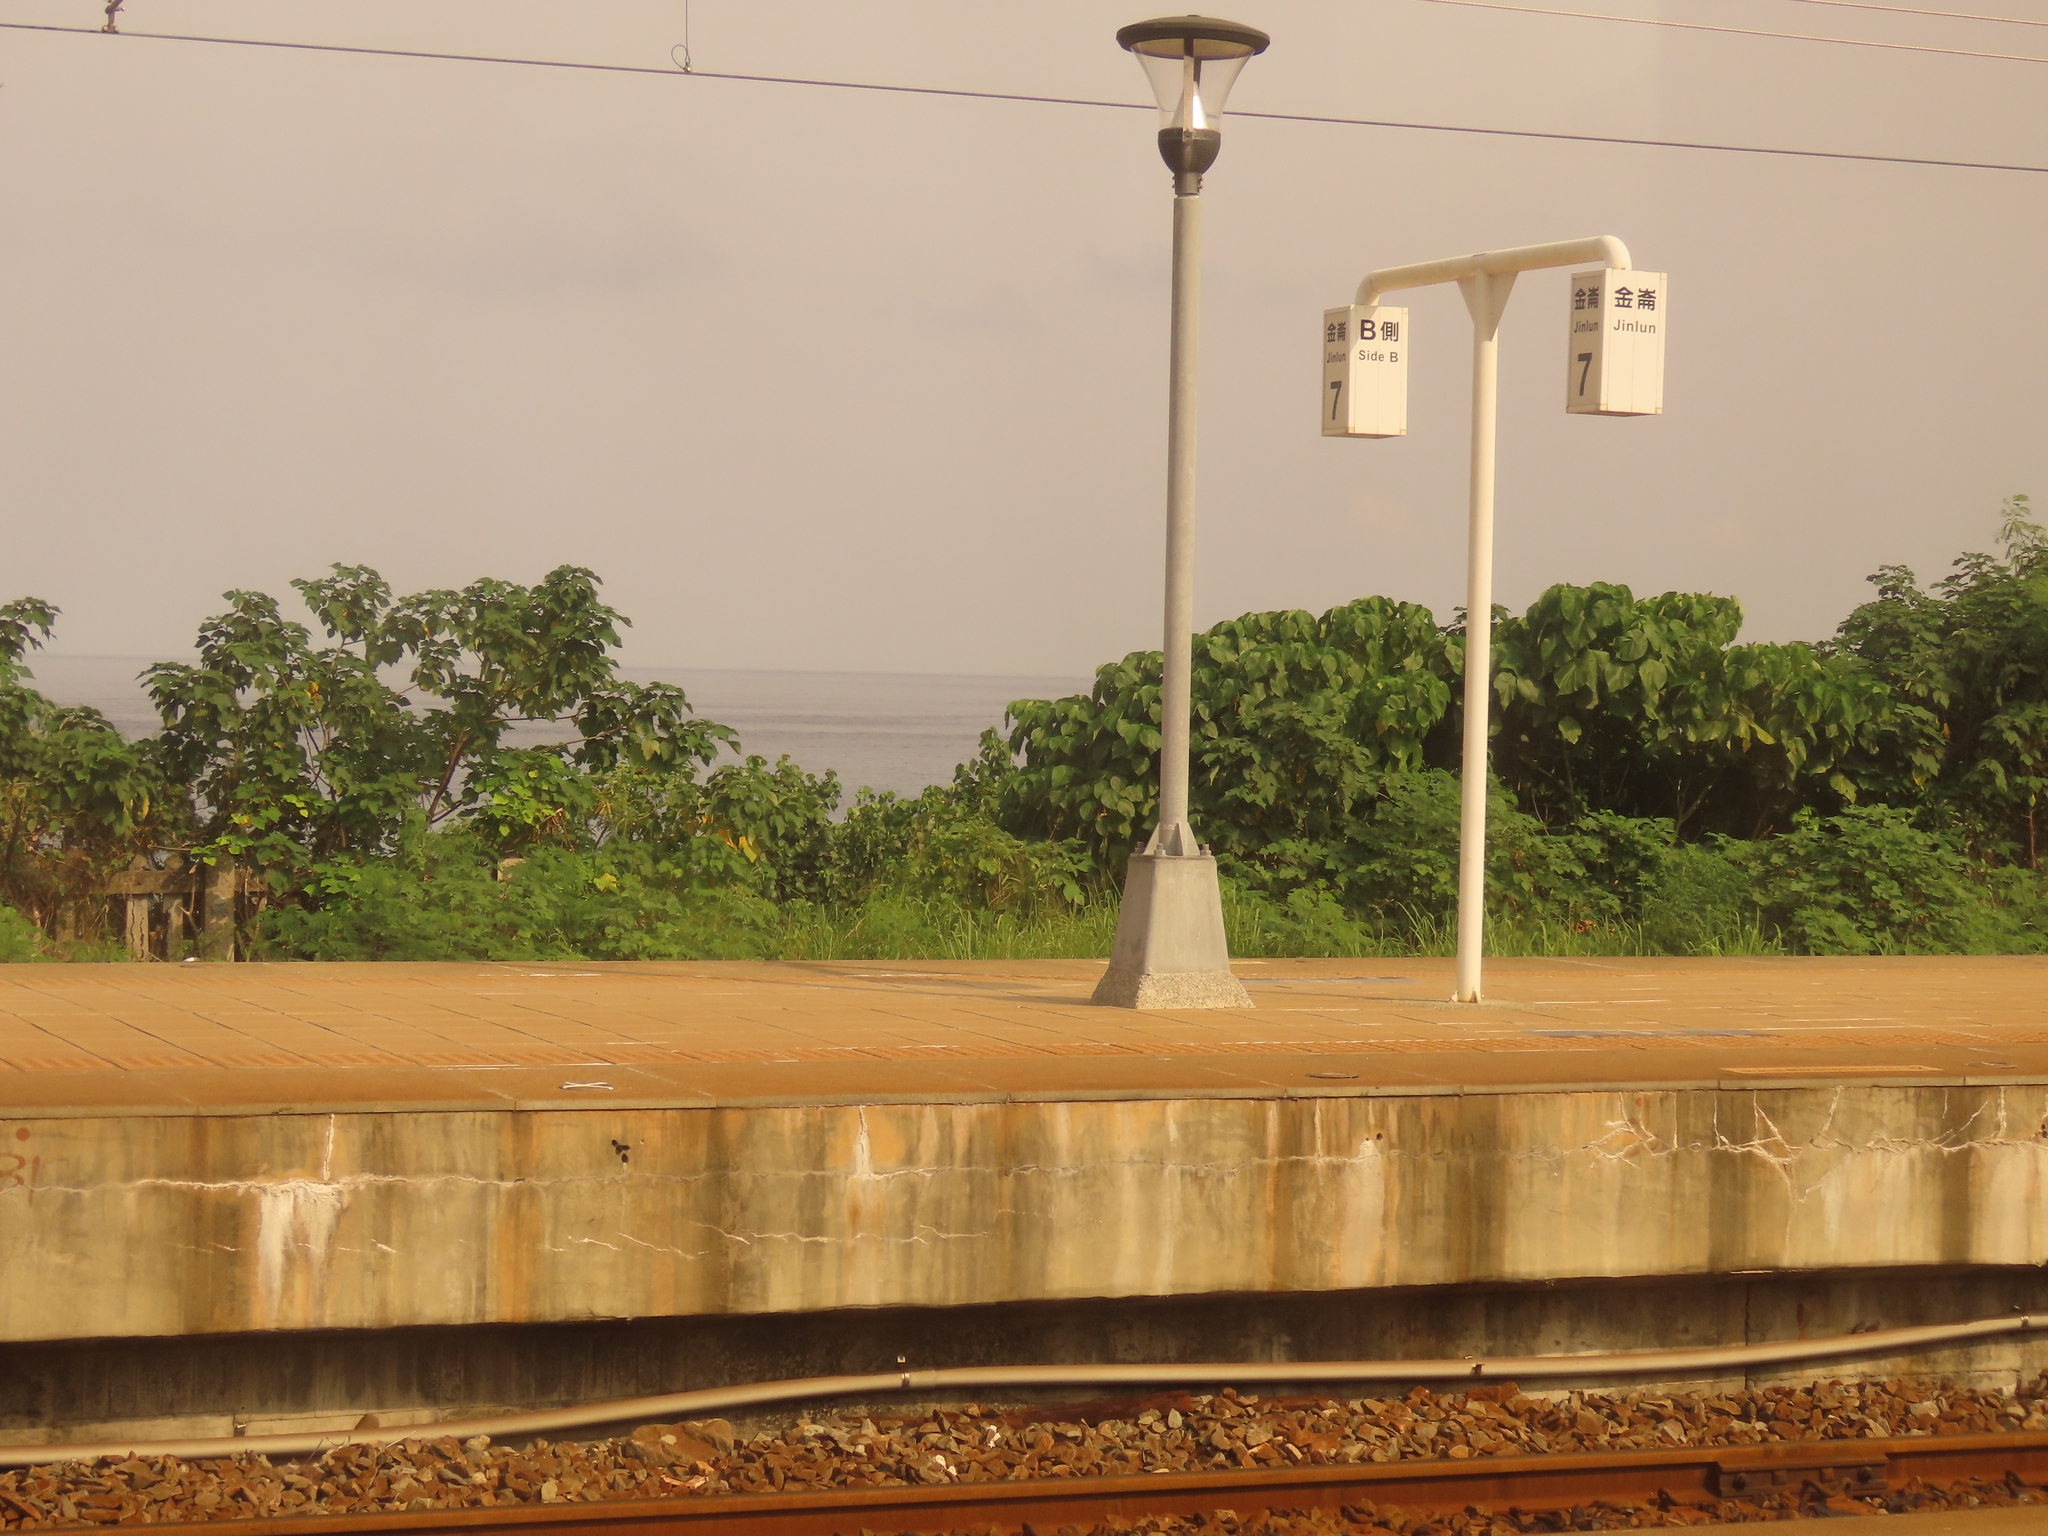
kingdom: Plantae
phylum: Tracheophyta
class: Magnoliopsida
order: Rosales
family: Moraceae
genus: Broussonetia
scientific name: Broussonetia papyrifera
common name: Paper mulberry
